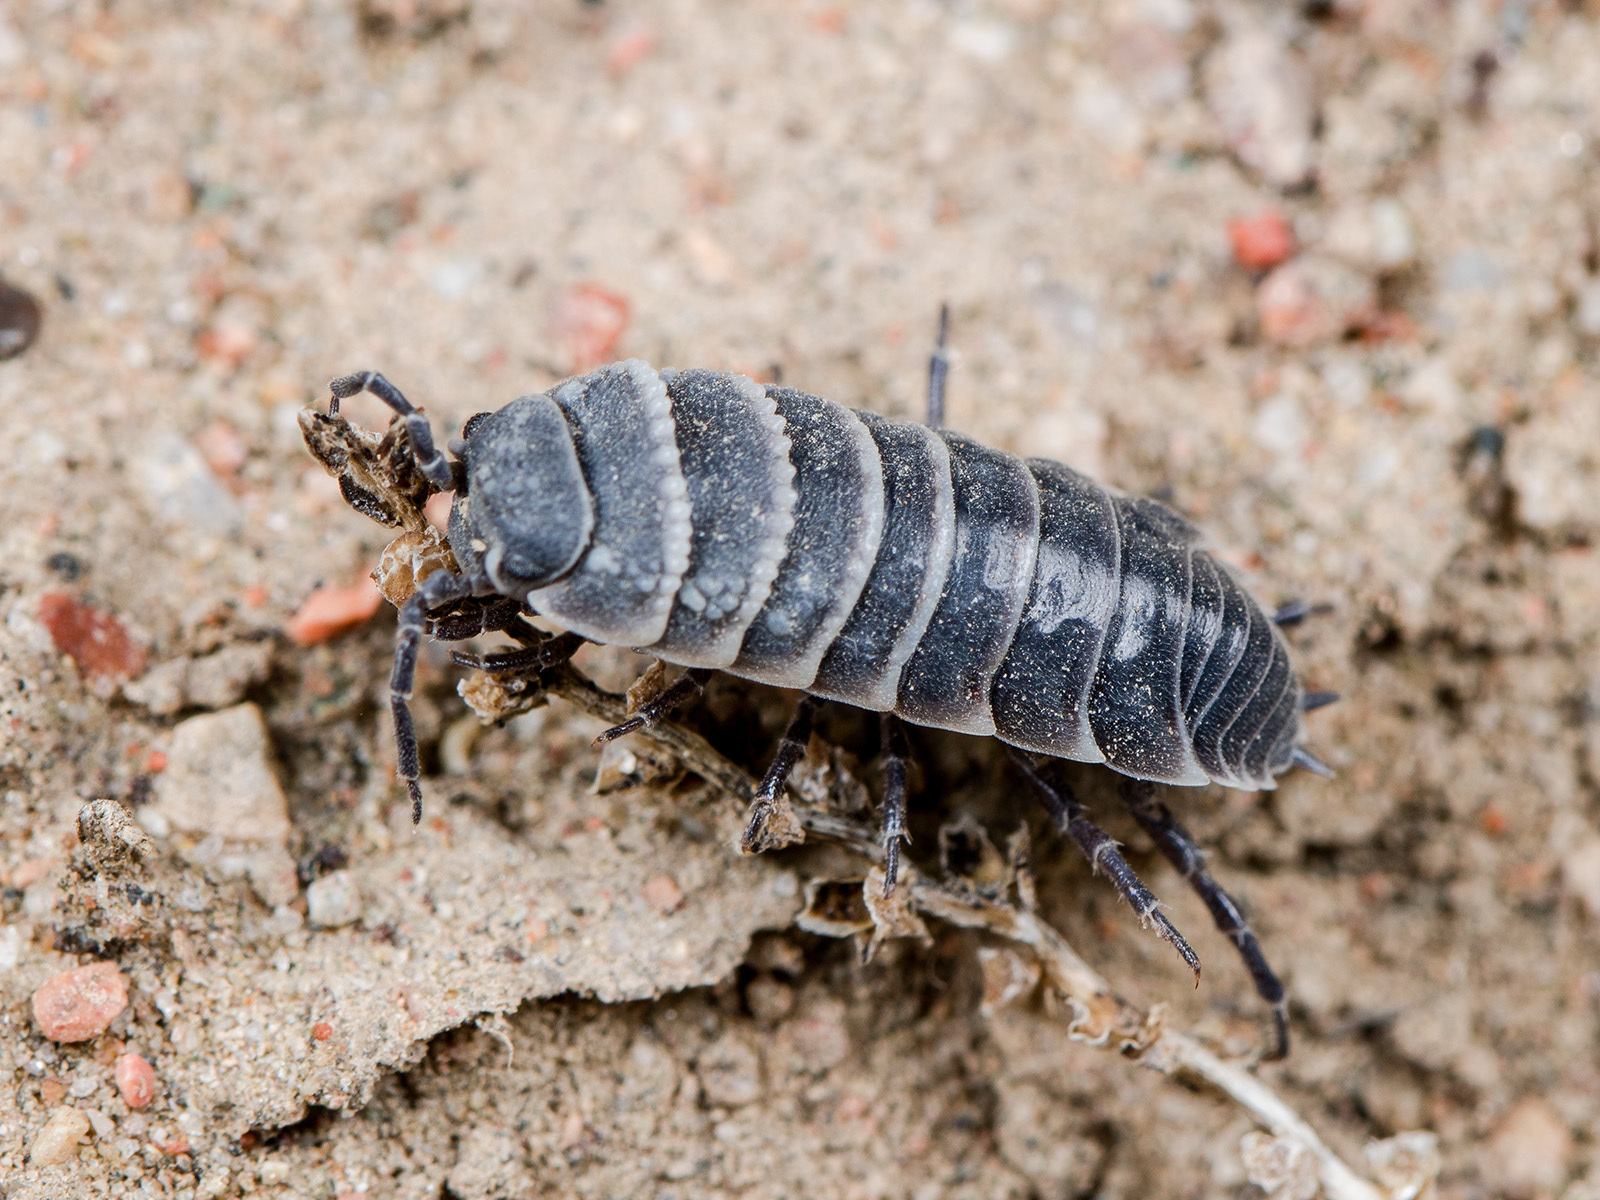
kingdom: Animalia
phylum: Arthropoda
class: Malacostraca
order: Isopoda
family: Agnaridae
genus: Hemilepistus
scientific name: Hemilepistus crenulatus
